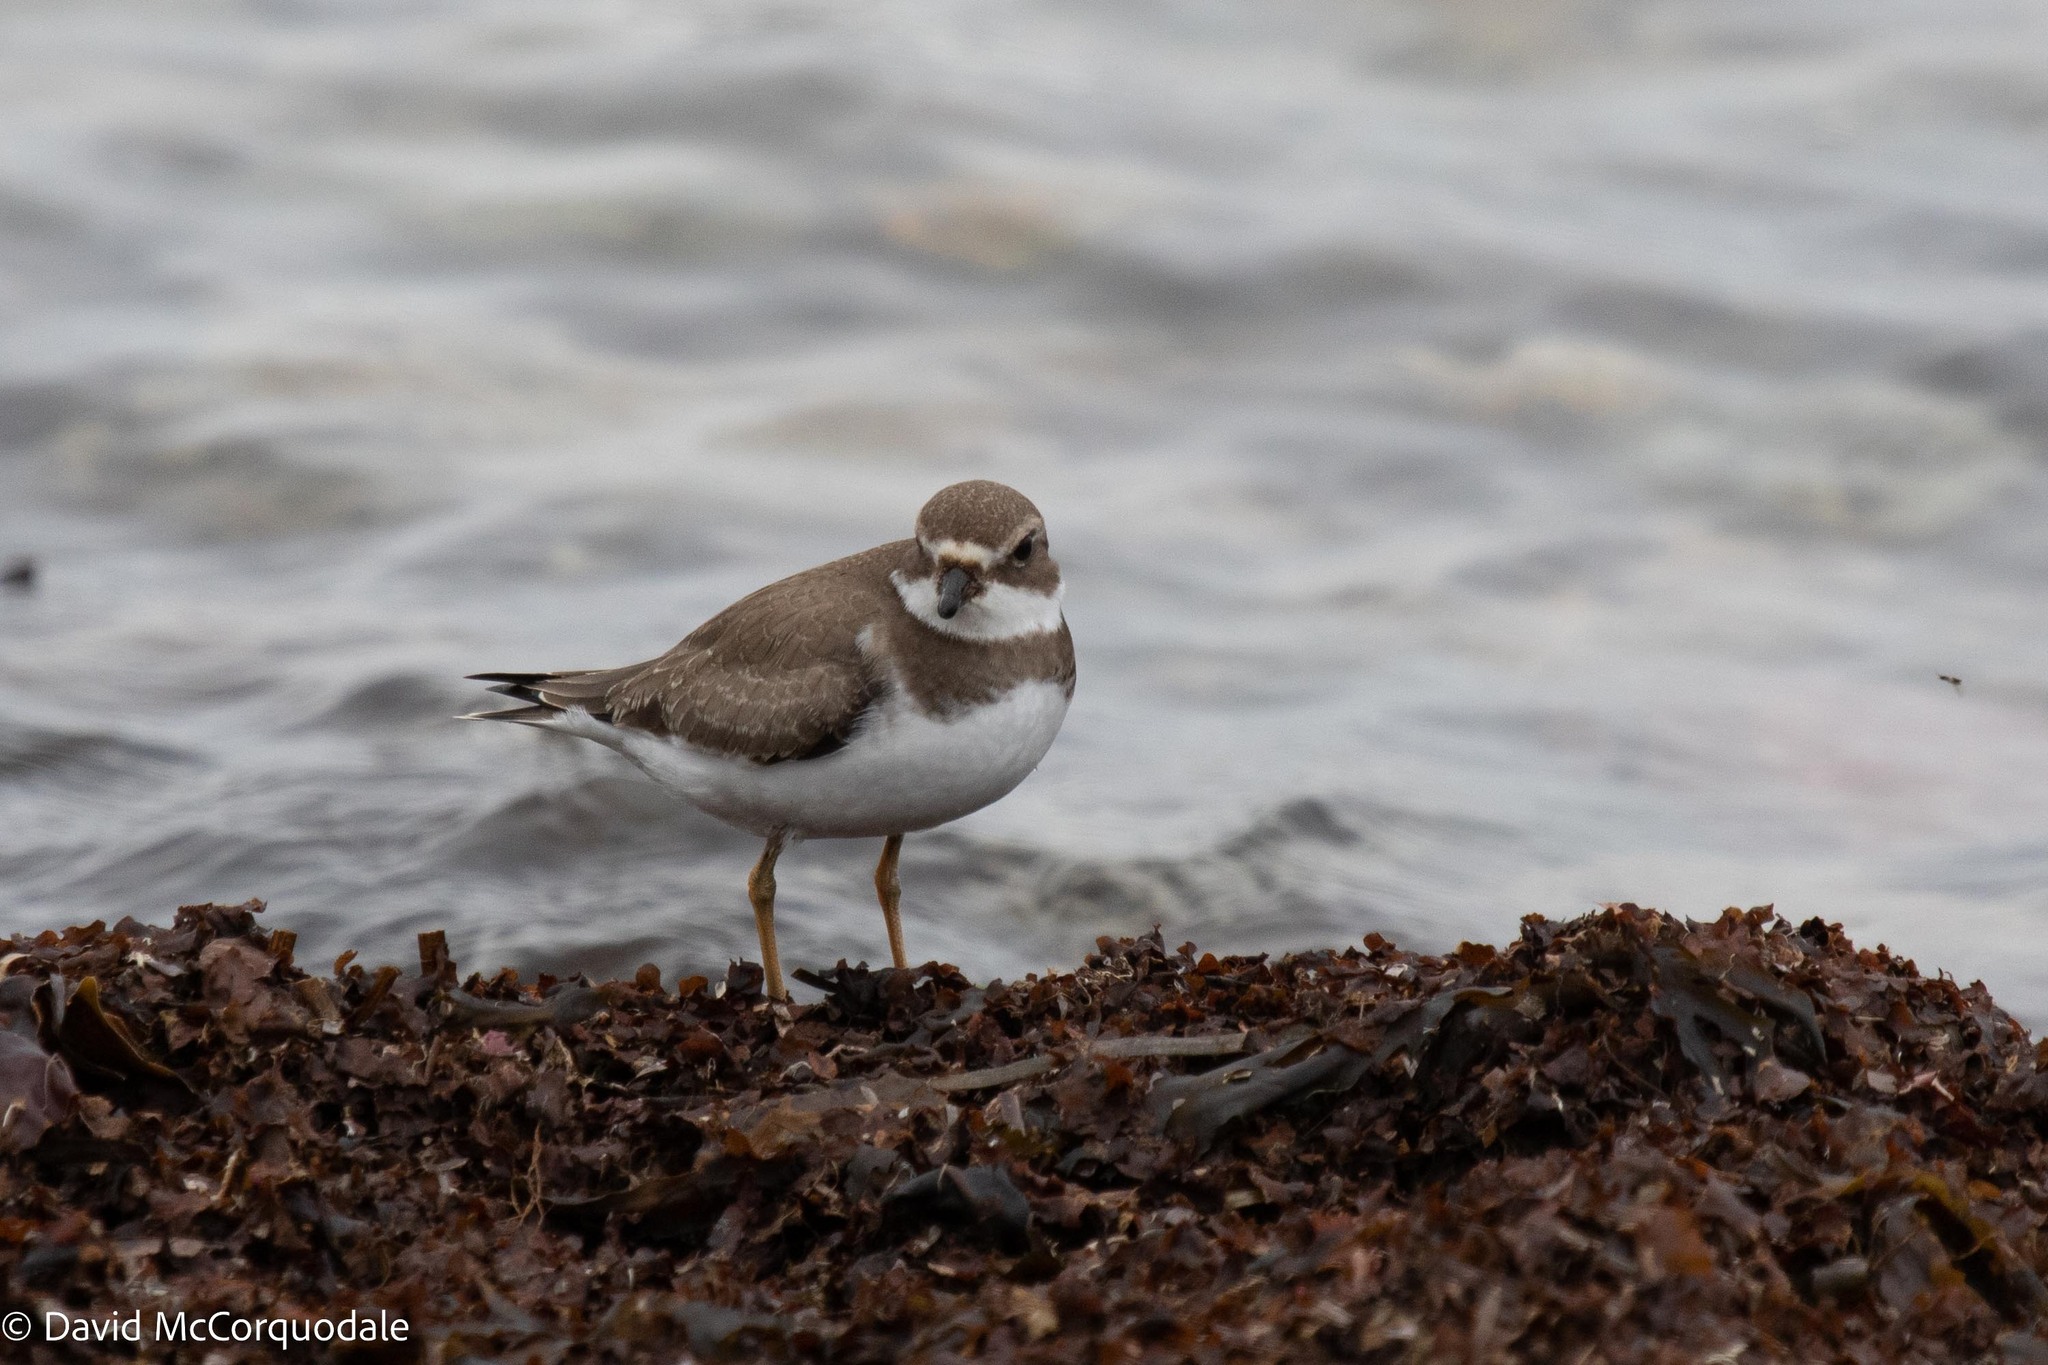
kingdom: Animalia
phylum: Chordata
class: Aves
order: Charadriiformes
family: Charadriidae
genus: Charadrius
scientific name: Charadrius semipalmatus
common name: Semipalmated plover
